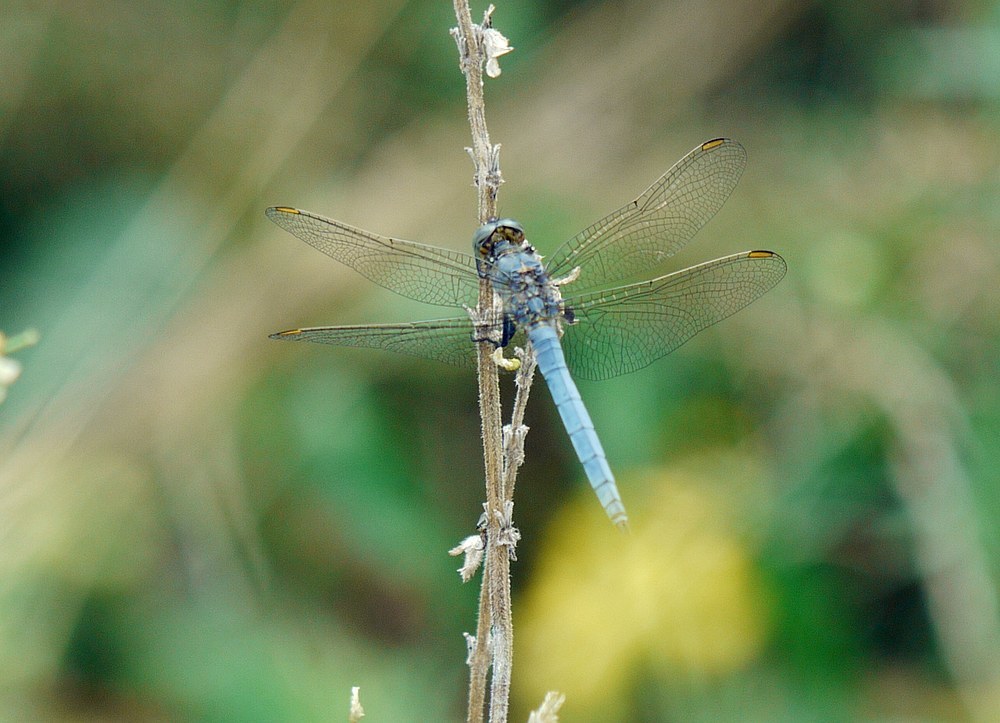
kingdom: Animalia
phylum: Arthropoda
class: Insecta
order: Odonata
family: Libellulidae
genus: Orthetrum
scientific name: Orthetrum coerulescens
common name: Keeled skimmer
